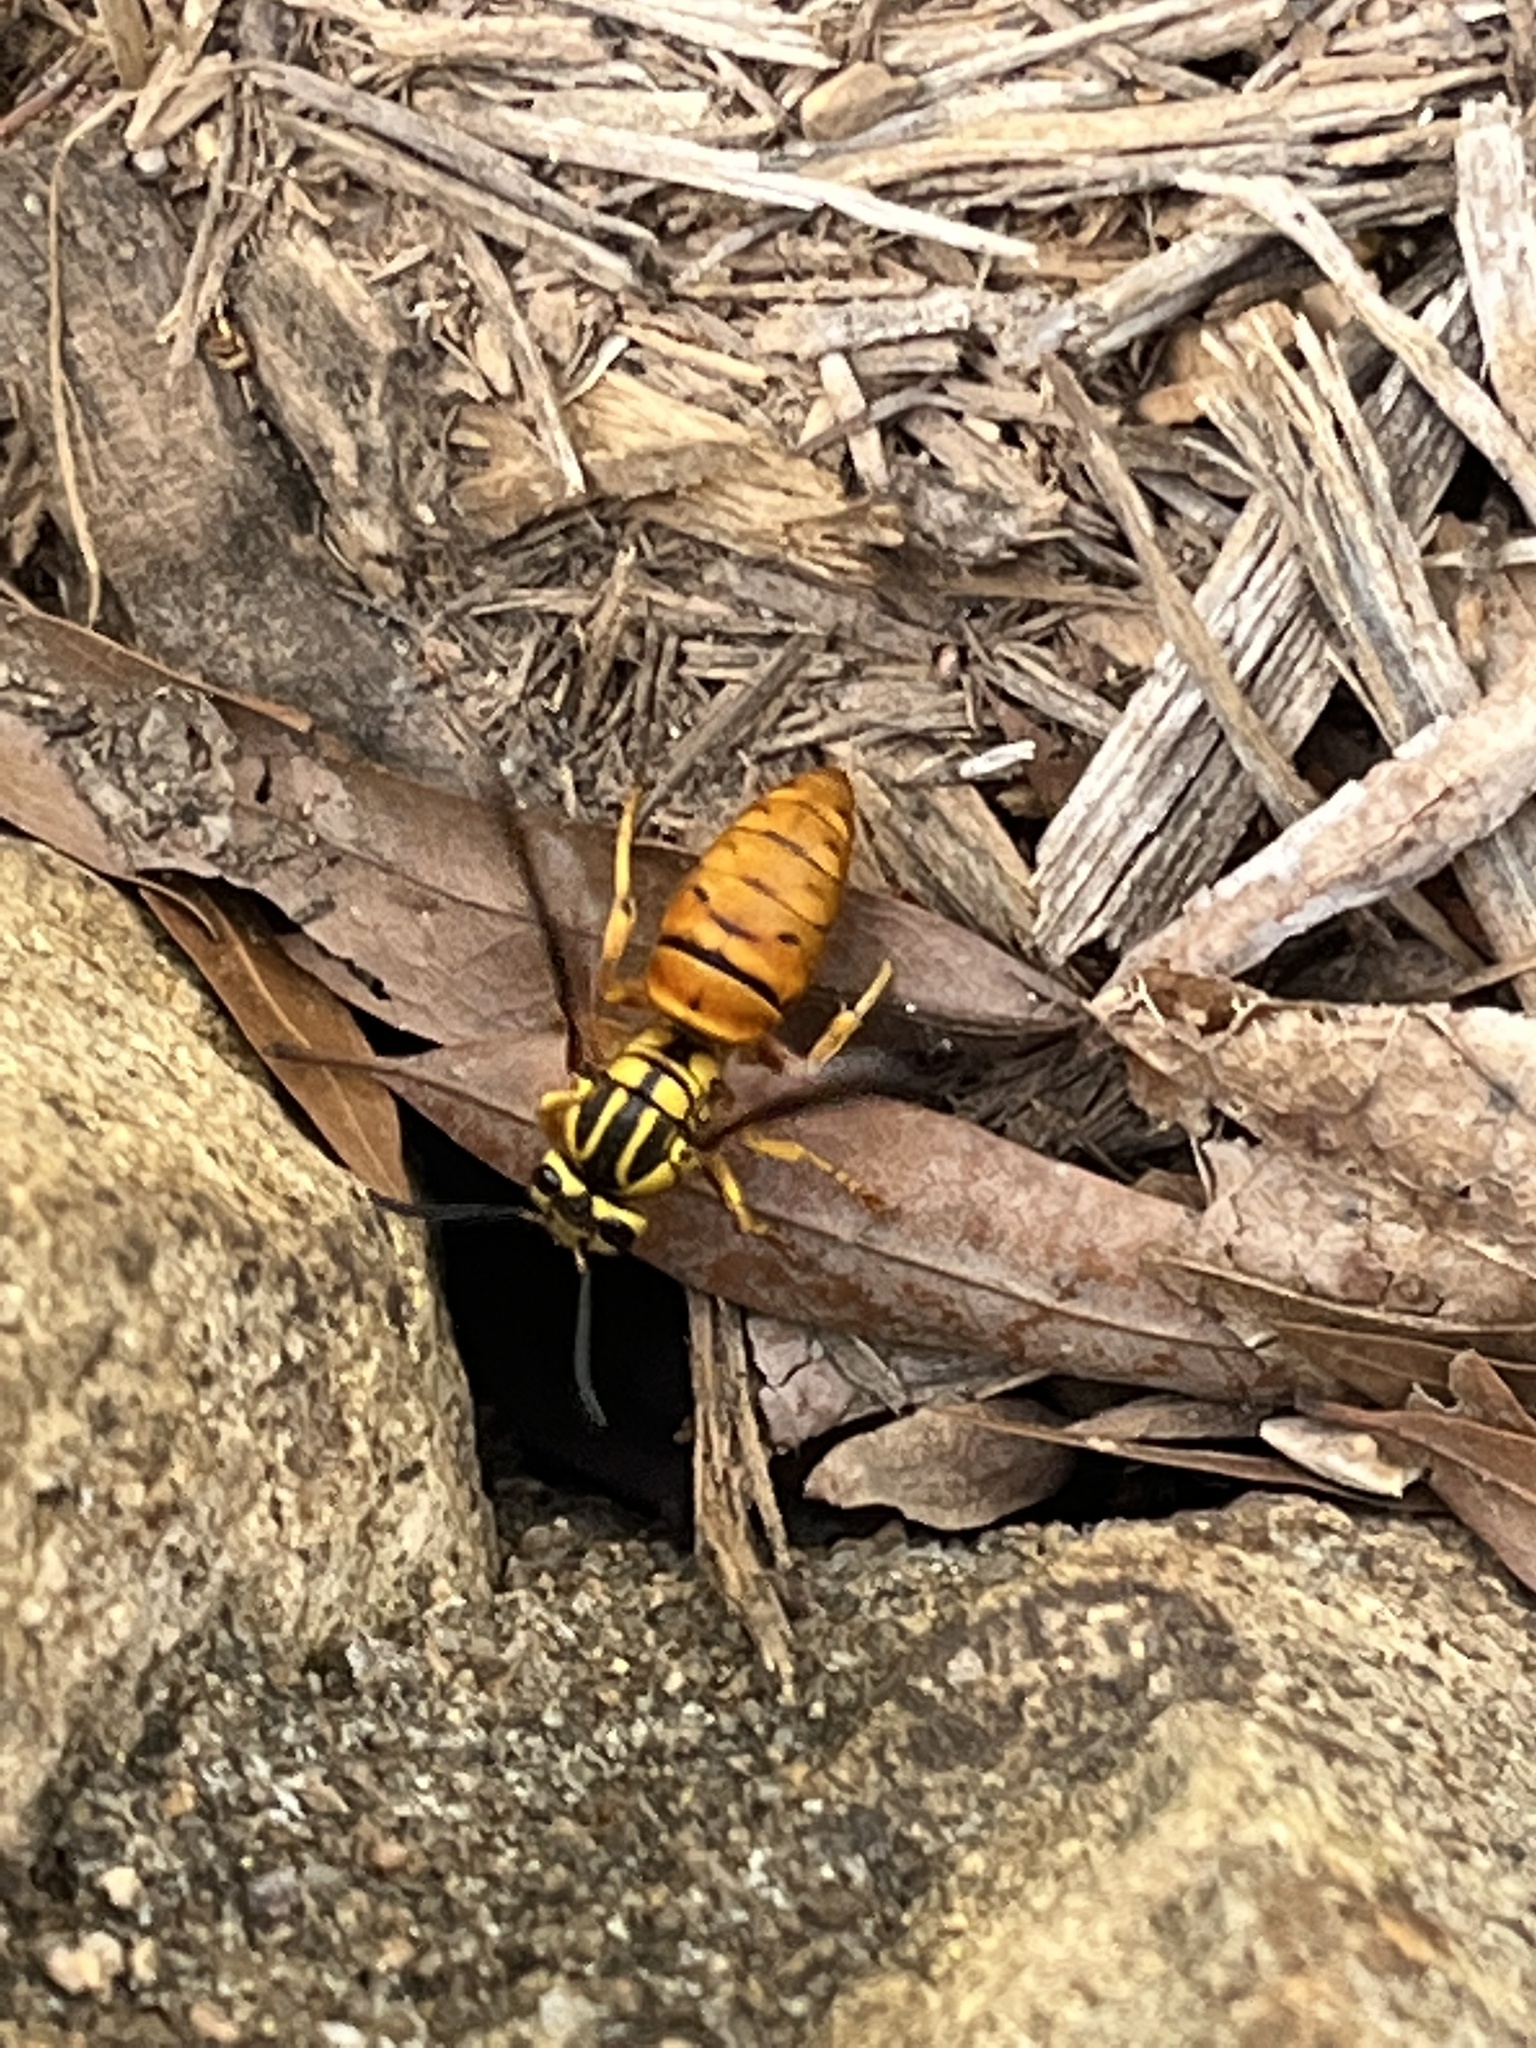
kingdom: Animalia
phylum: Arthropoda
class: Insecta
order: Hymenoptera
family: Vespidae
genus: Vespula
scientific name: Vespula squamosa
